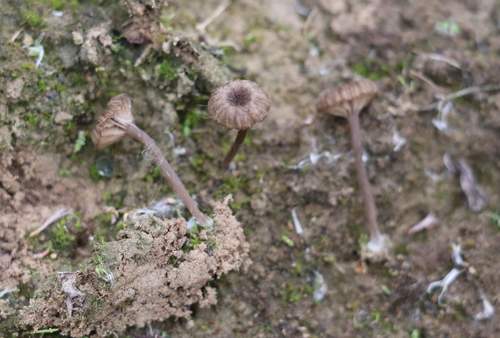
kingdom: Fungi
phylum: Basidiomycota
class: Agaricomycetes
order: Agaricales
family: Hygrophoraceae
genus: Arrhenia
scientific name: Arrhenia obscurata
